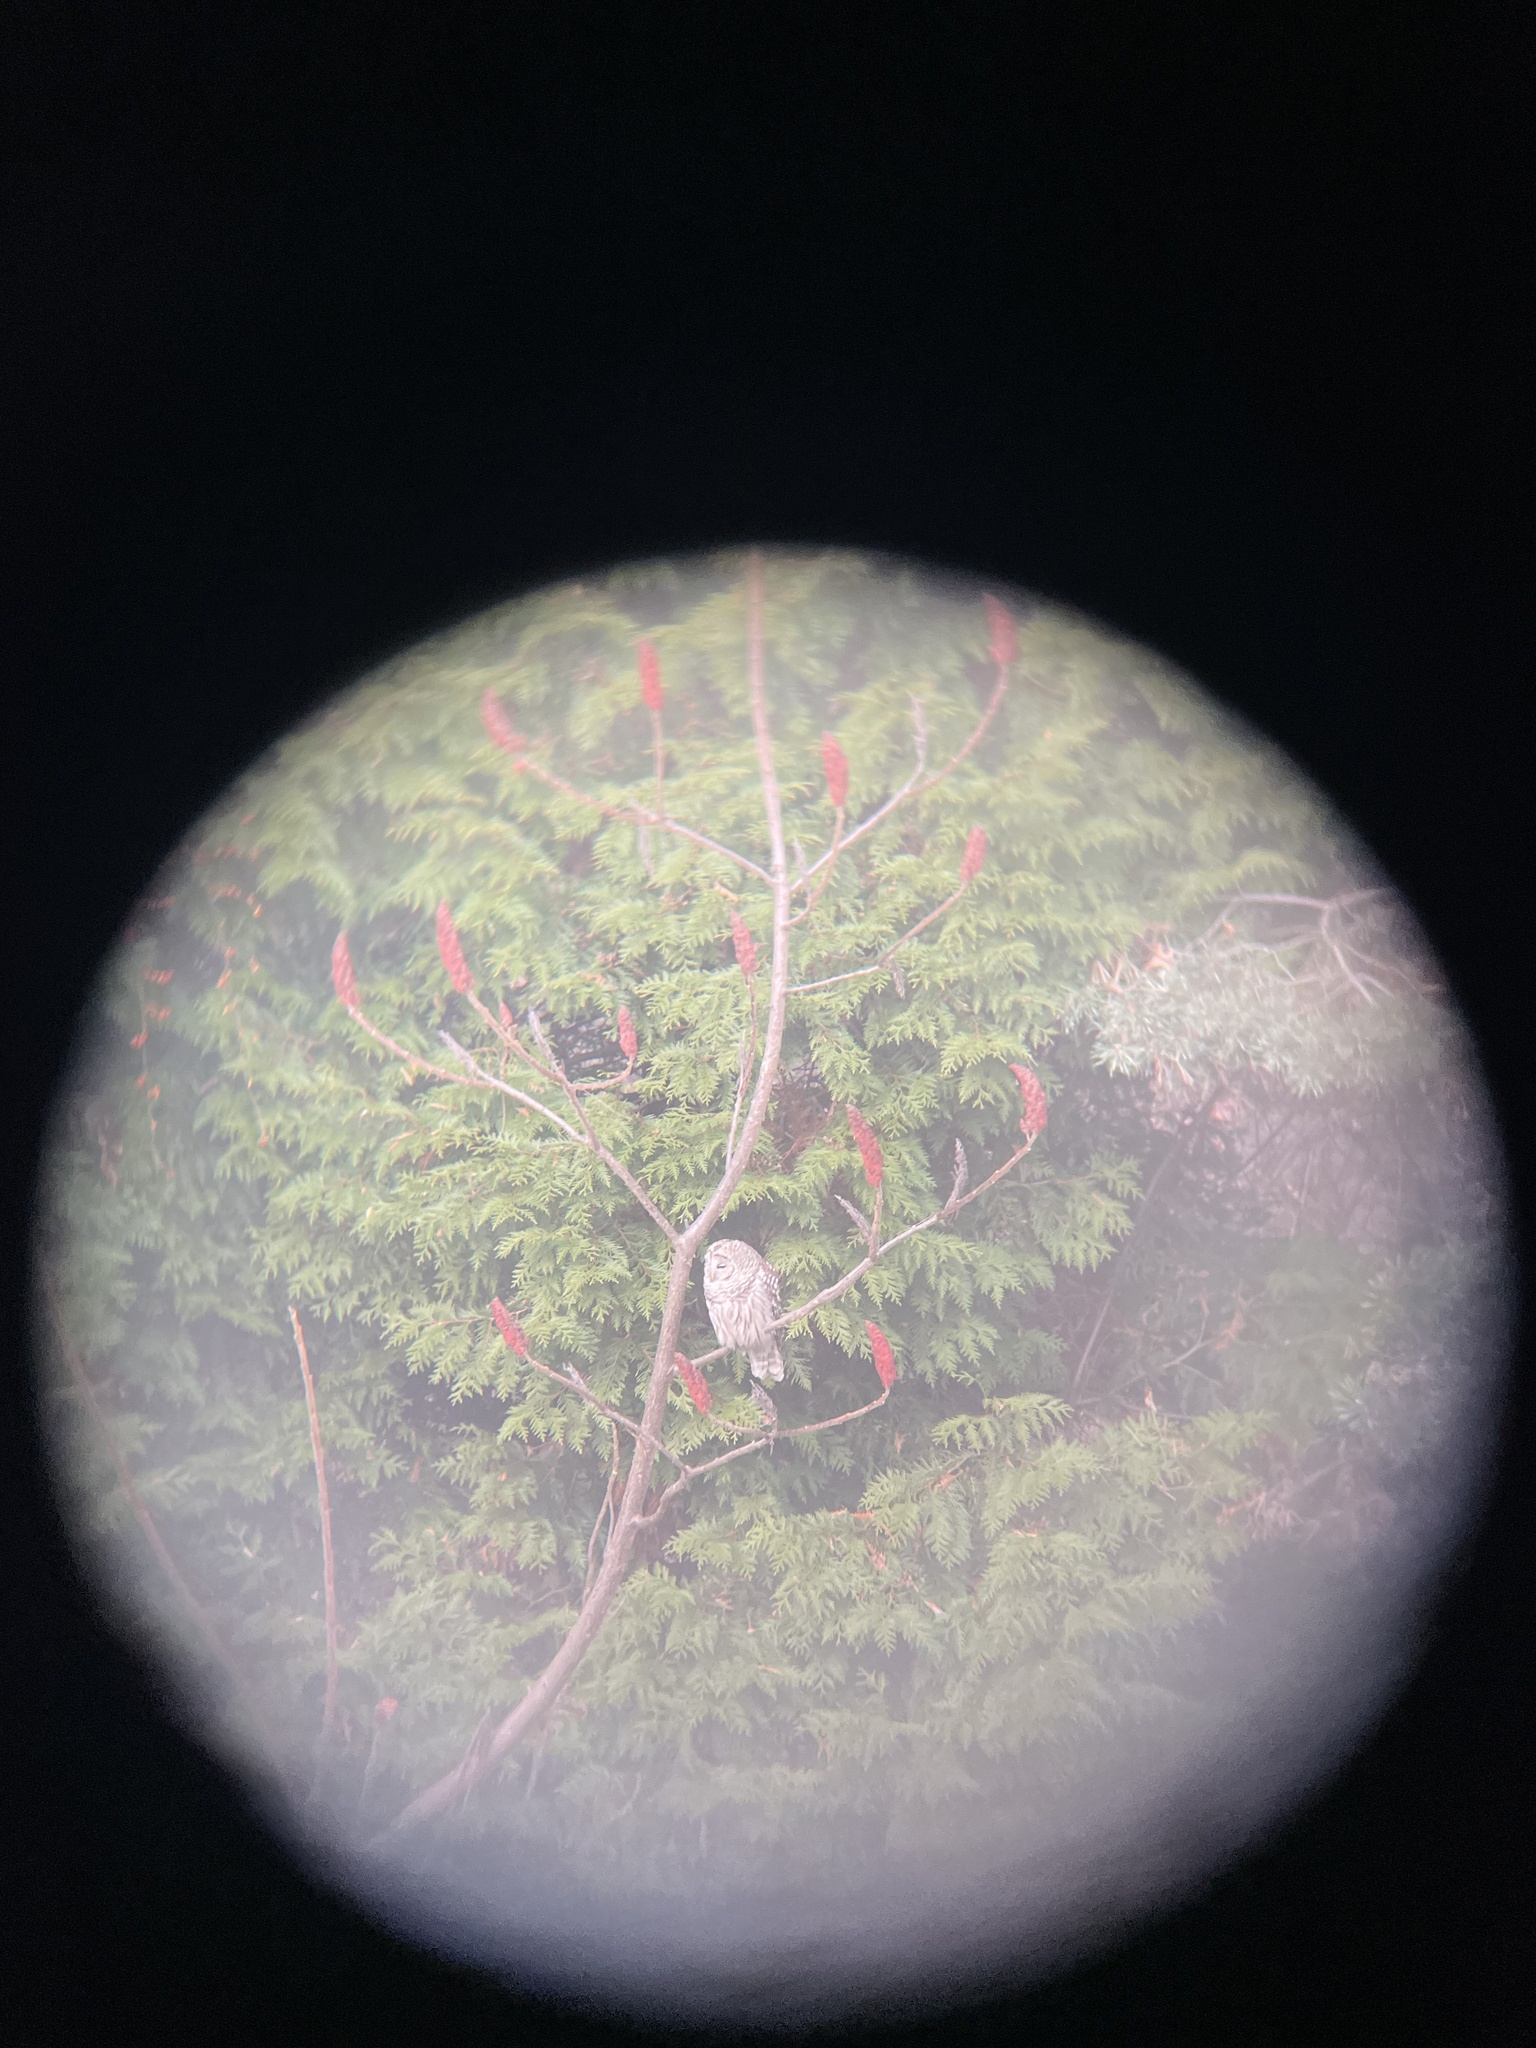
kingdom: Animalia
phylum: Chordata
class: Aves
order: Strigiformes
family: Strigidae
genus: Strix
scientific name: Strix varia
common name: Barred owl
